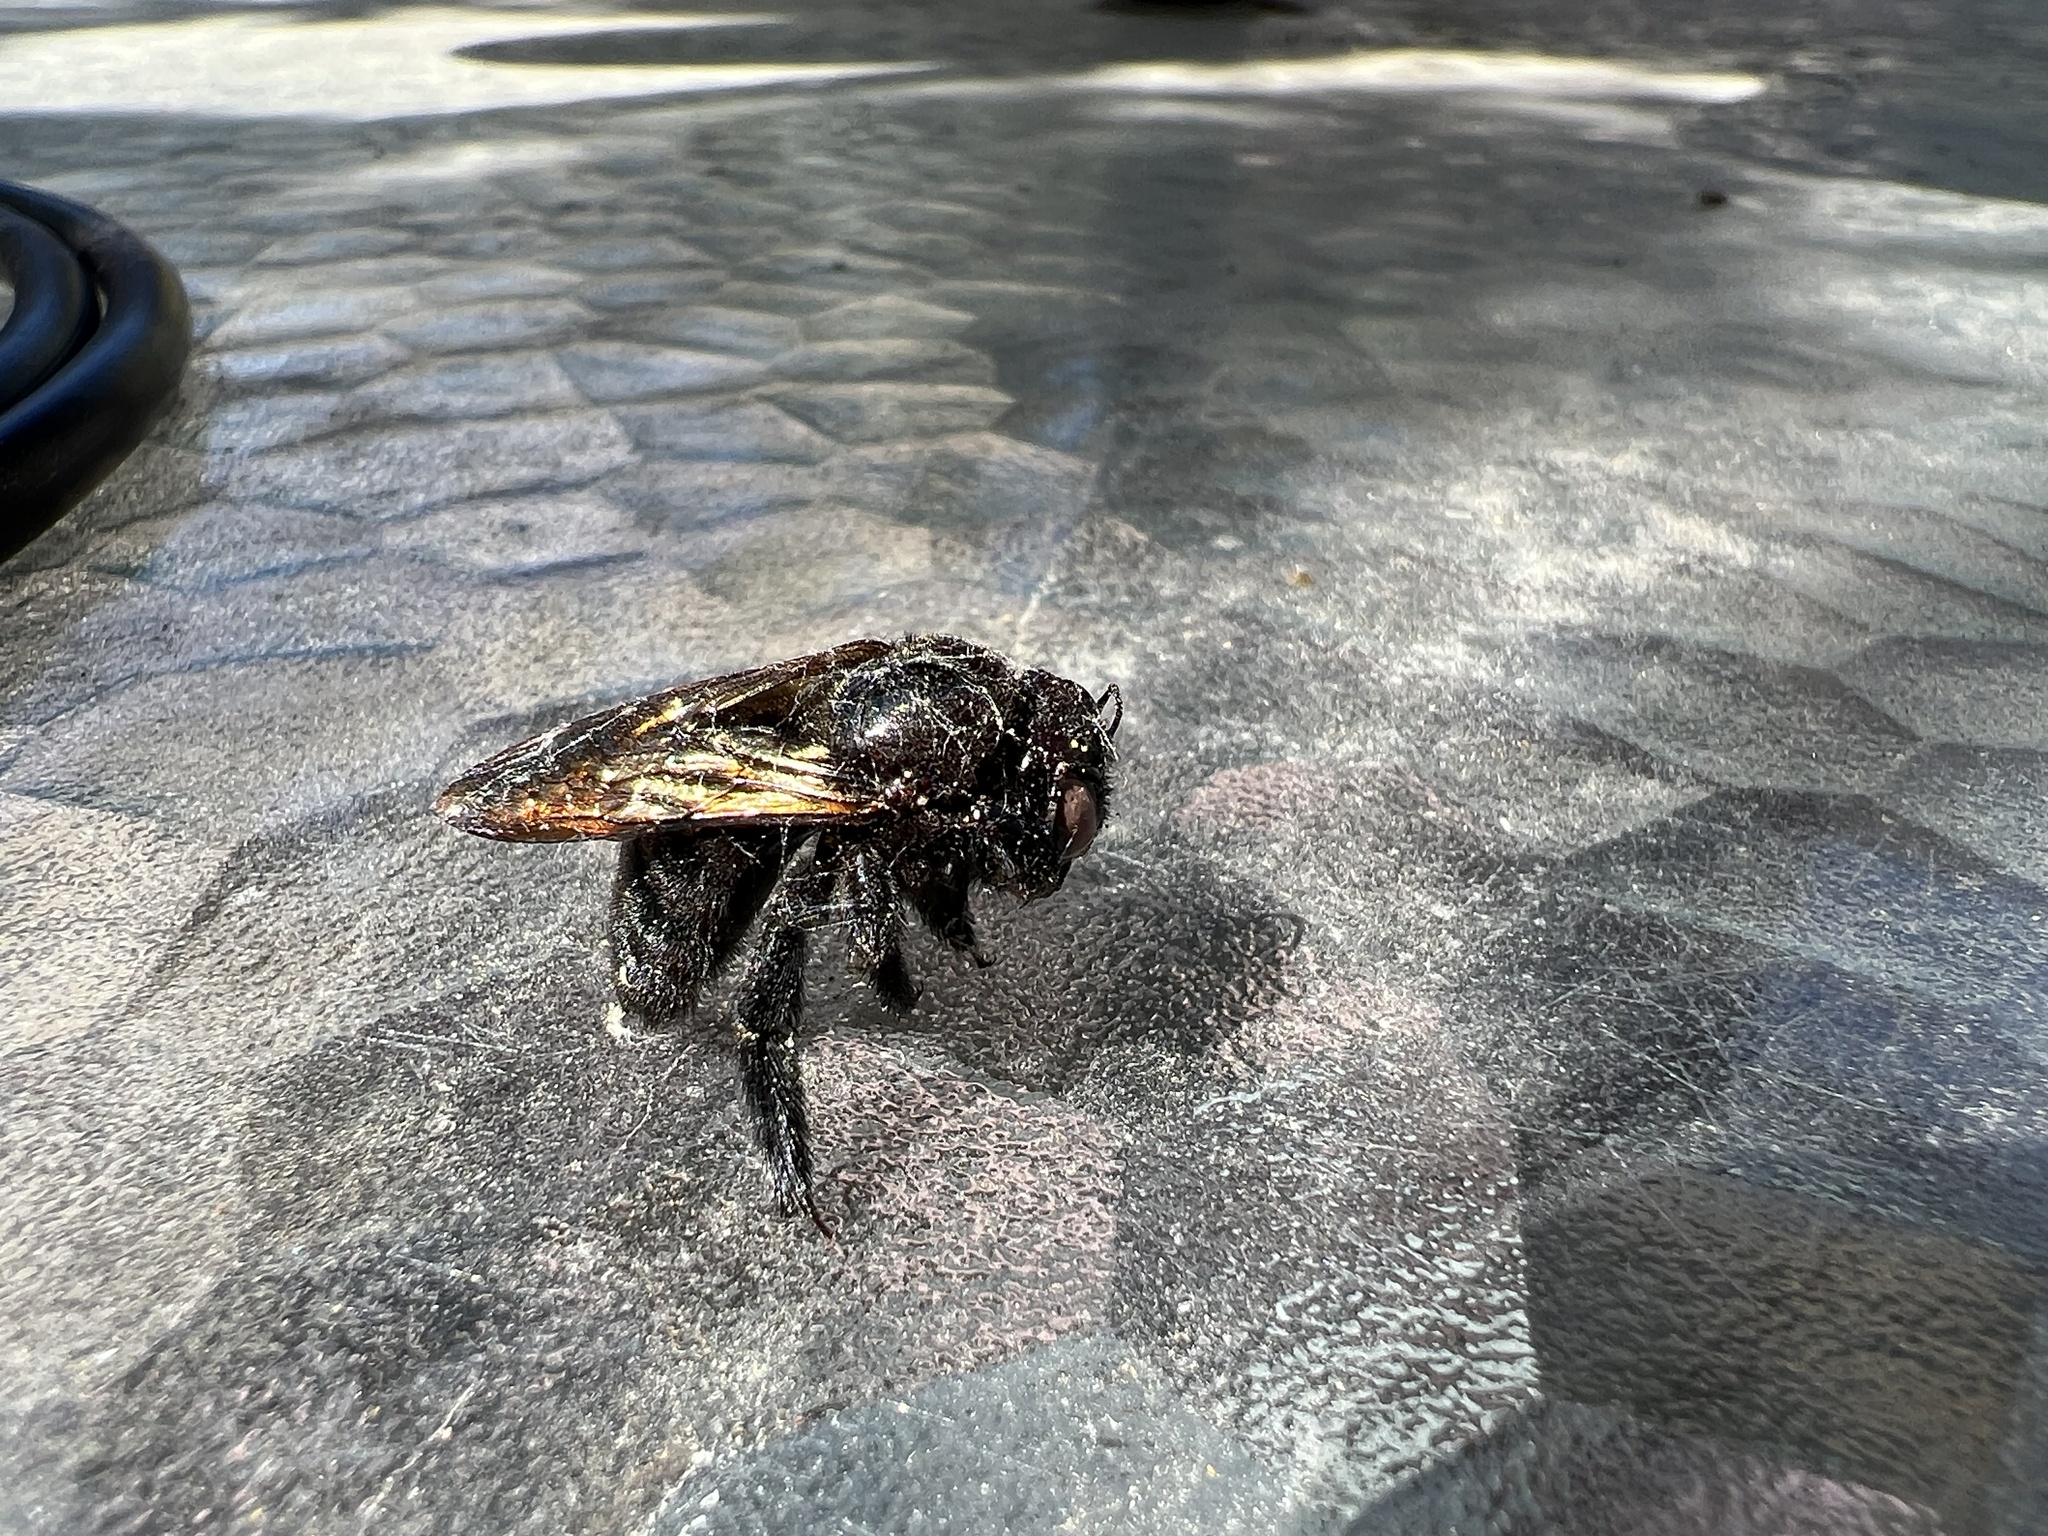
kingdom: Animalia
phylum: Arthropoda
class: Insecta
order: Hymenoptera
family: Apidae
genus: Xylocopa
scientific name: Xylocopa sonorina
